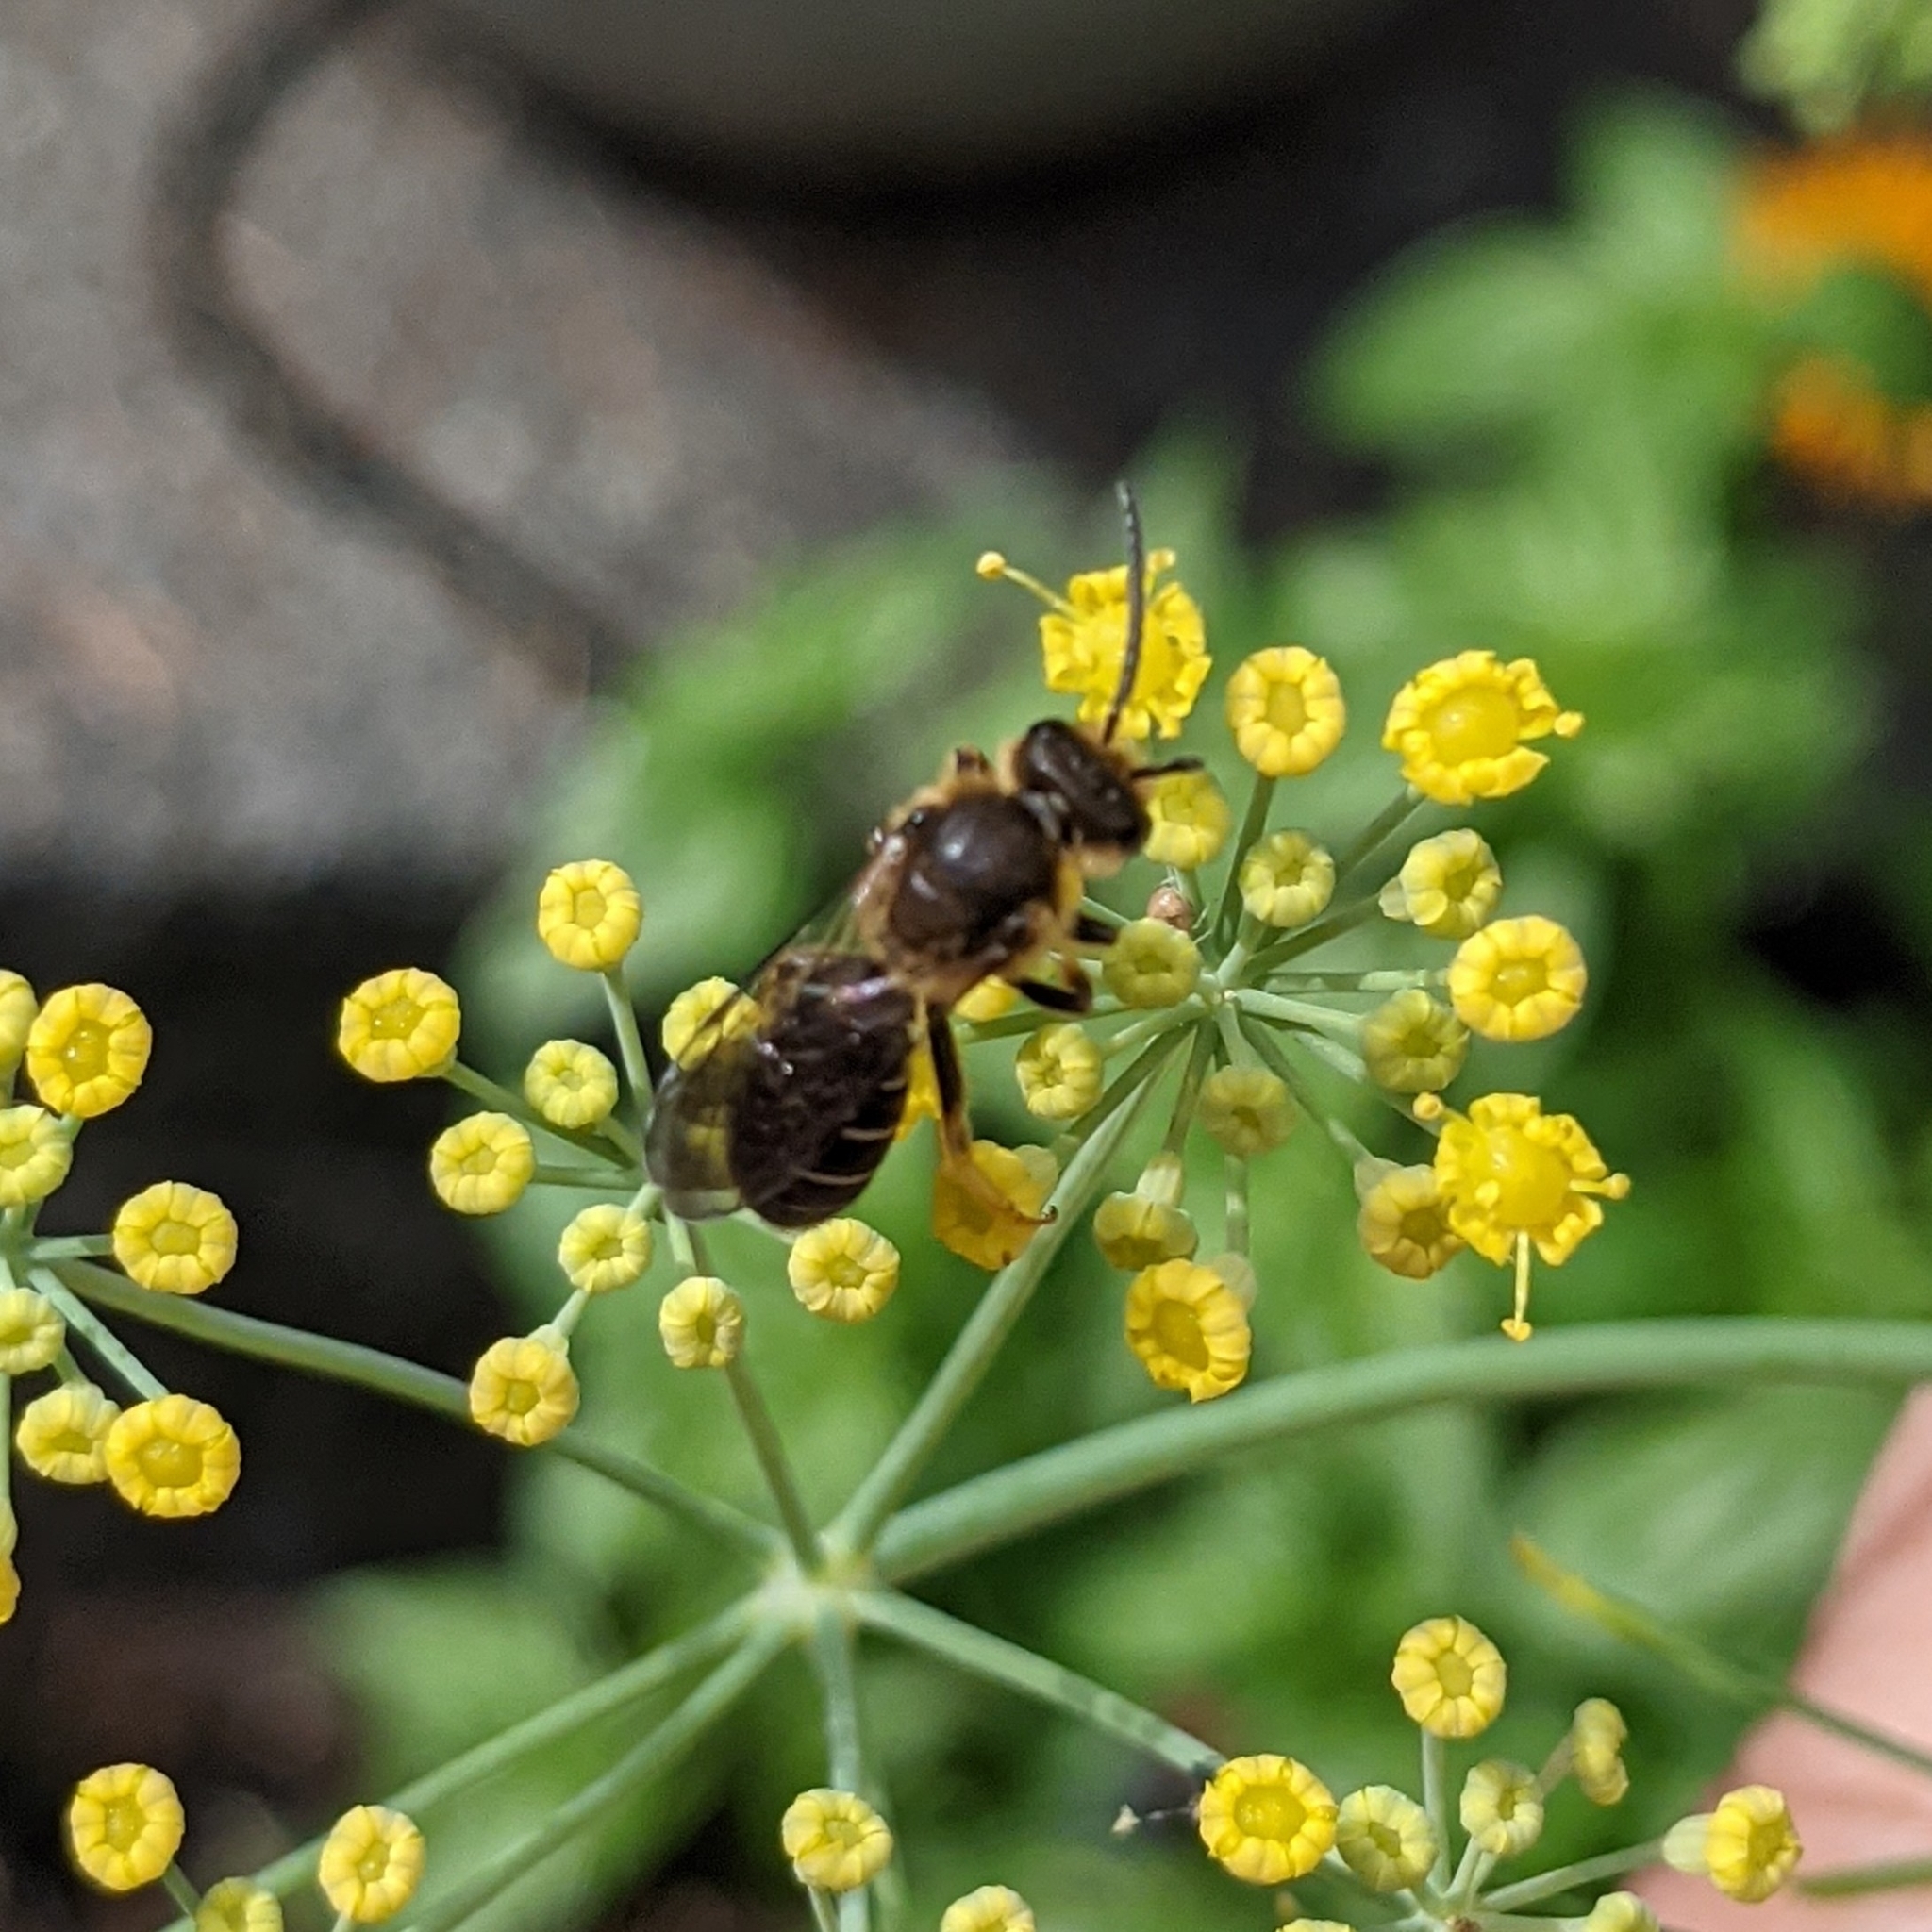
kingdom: Animalia
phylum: Arthropoda
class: Insecta
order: Hymenoptera
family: Halictidae
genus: Halictus
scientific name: Halictus rubicundus
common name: Orange-legged furrow bee
